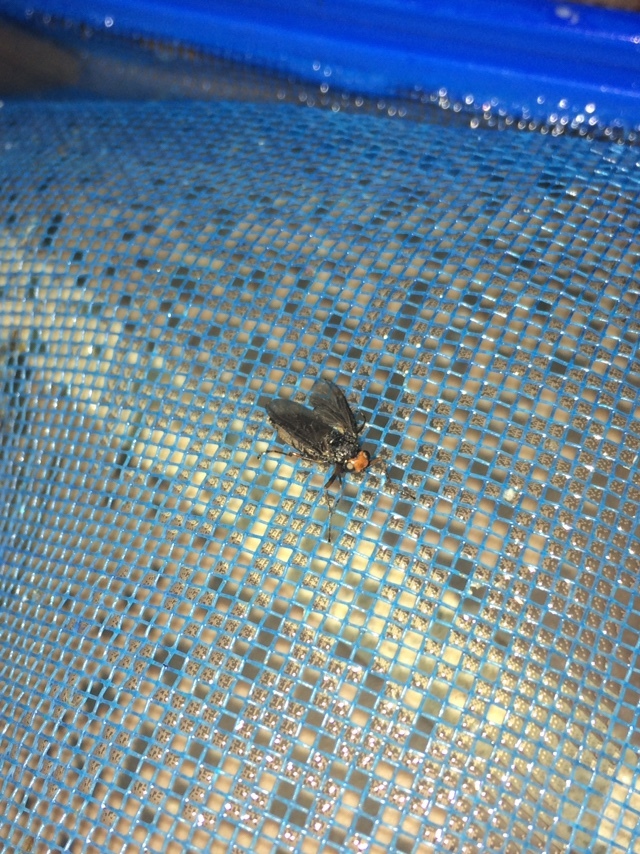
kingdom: Animalia
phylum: Arthropoda
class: Insecta
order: Diptera
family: Stratiomyidae
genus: Inopus
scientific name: Inopus rubriceps
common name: Soldier fly
